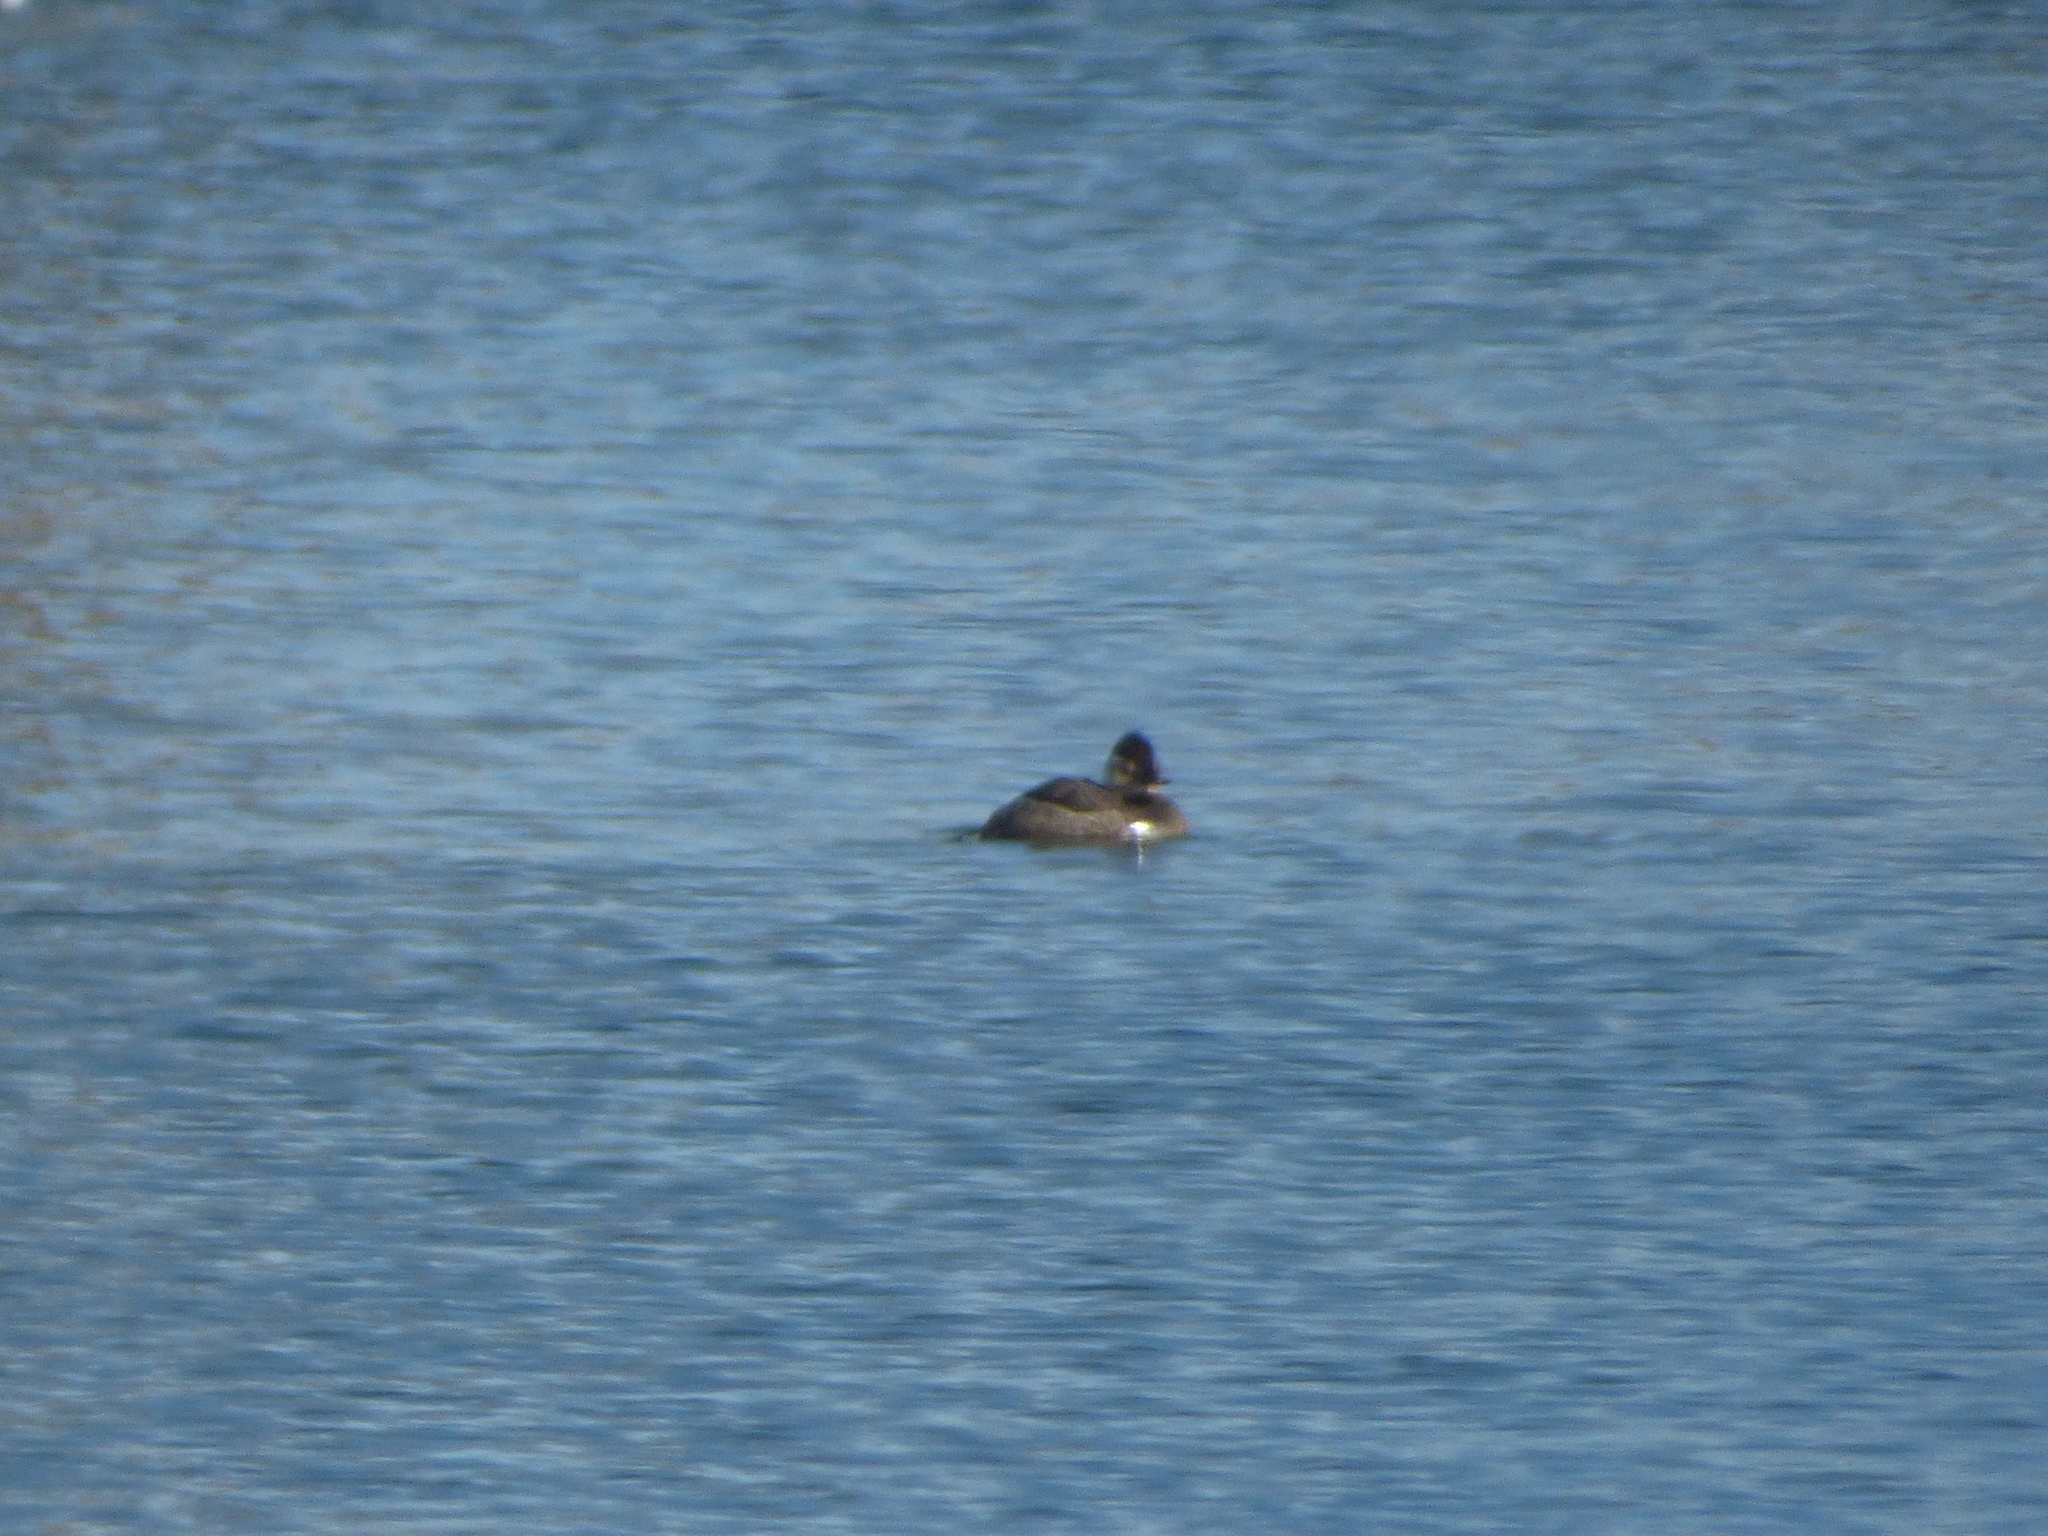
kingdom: Animalia
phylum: Chordata
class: Aves
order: Anseriformes
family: Anatidae
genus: Oxyura
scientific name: Oxyura jamaicensis
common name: Ruddy duck
